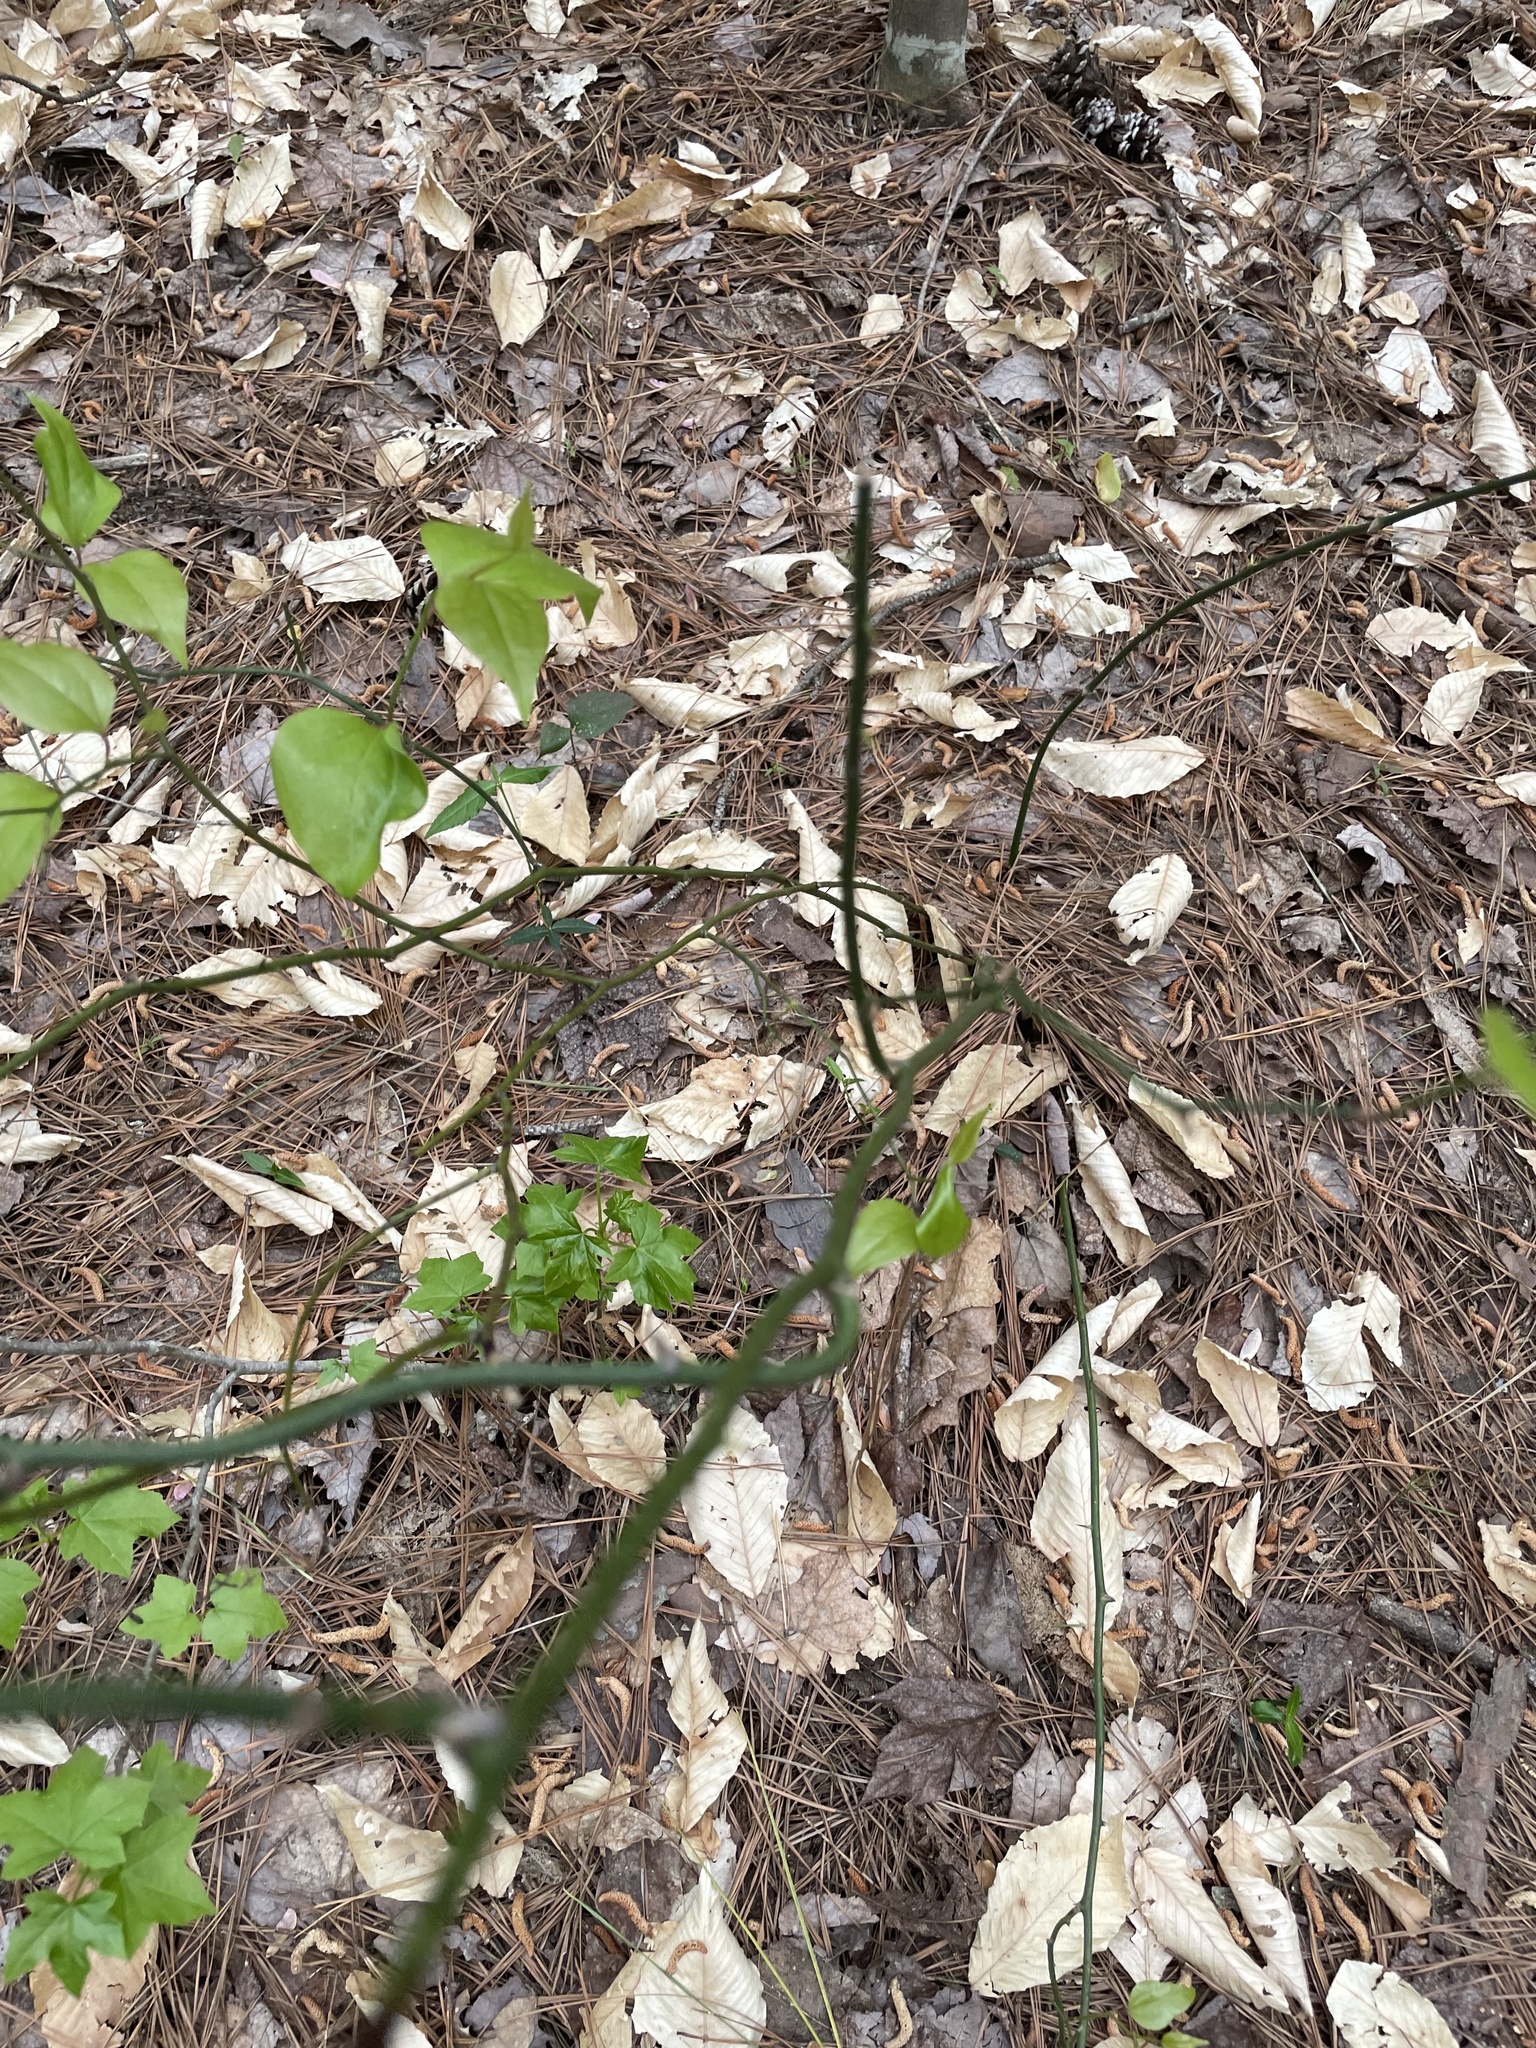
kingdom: Plantae
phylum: Tracheophyta
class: Liliopsida
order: Liliales
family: Smilacaceae
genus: Smilax
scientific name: Smilax rotundifolia
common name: Bullbriar
